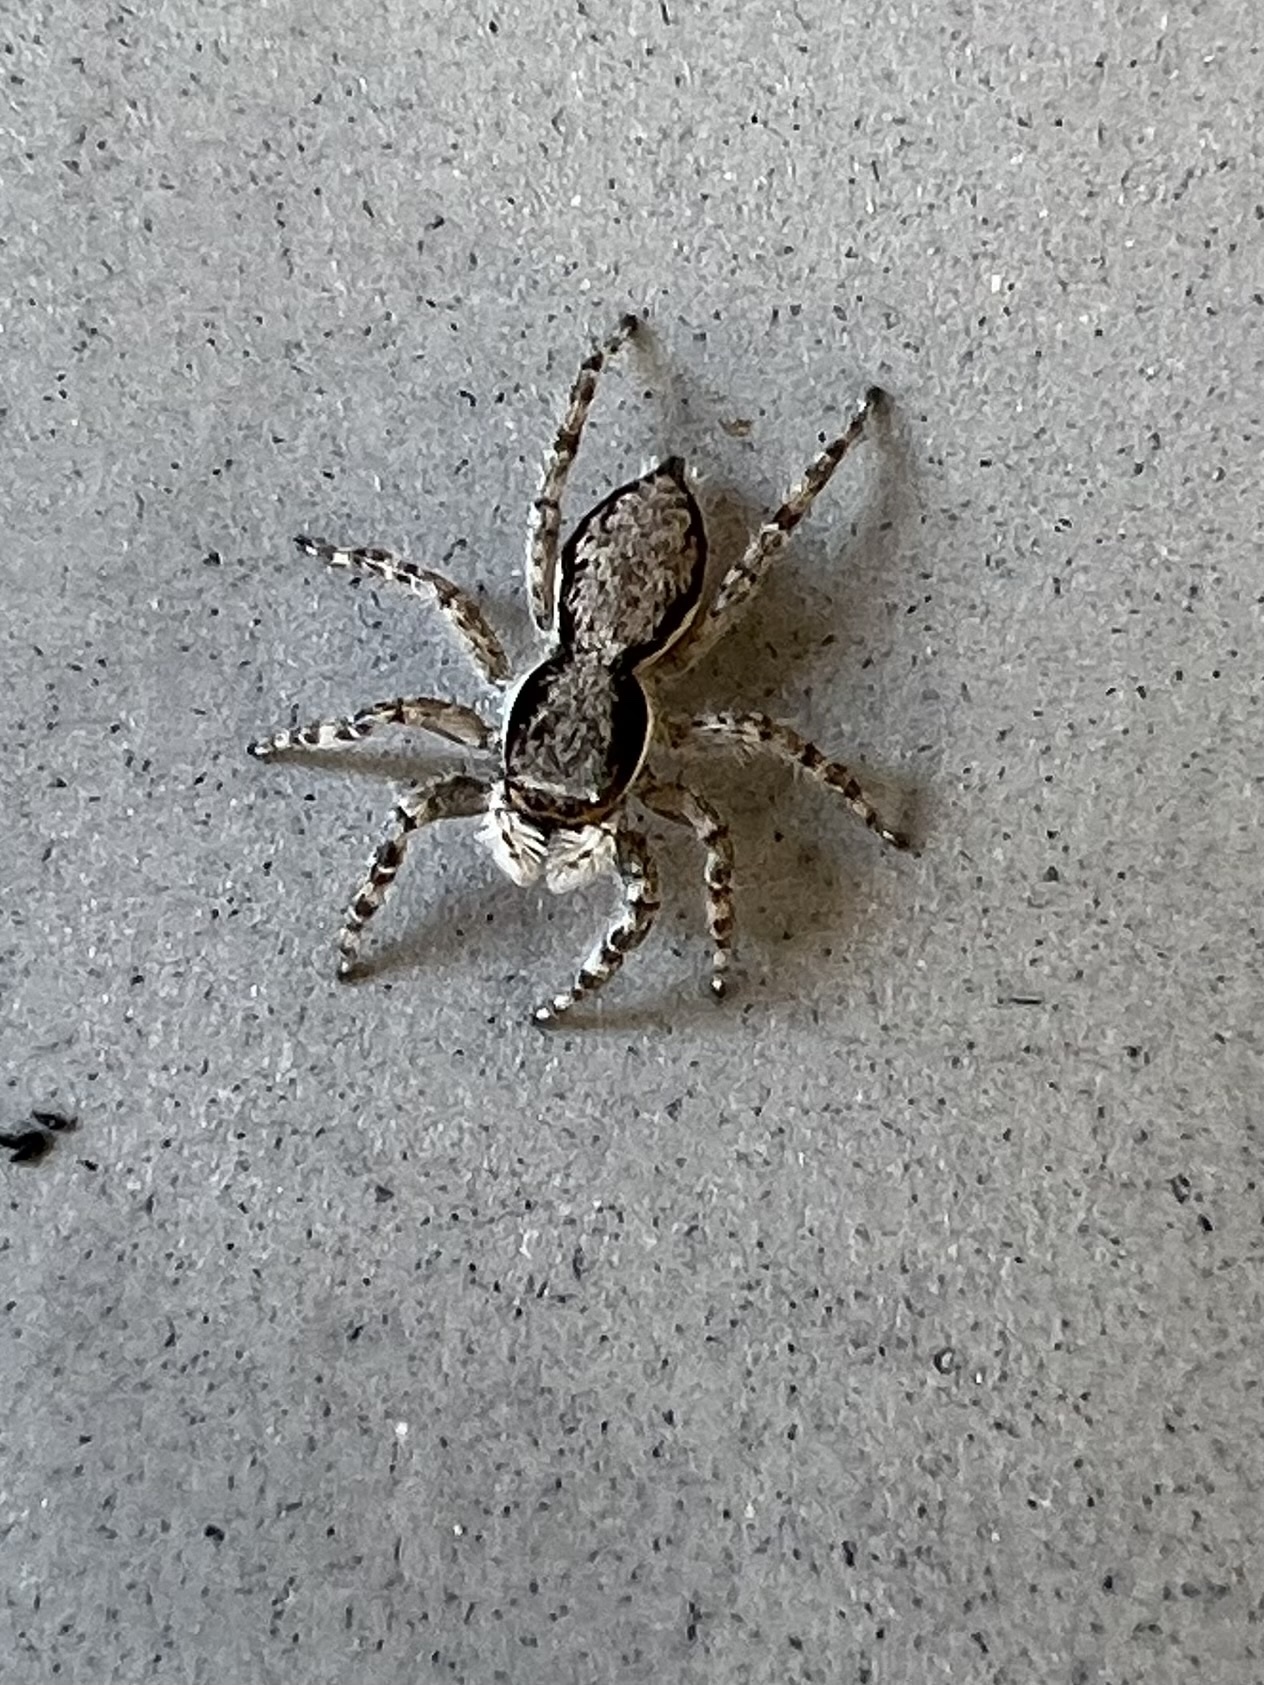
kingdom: Animalia
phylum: Arthropoda
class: Arachnida
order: Araneae
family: Salticidae
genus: Menemerus
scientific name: Menemerus bivittatus
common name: Gray wall jumper
